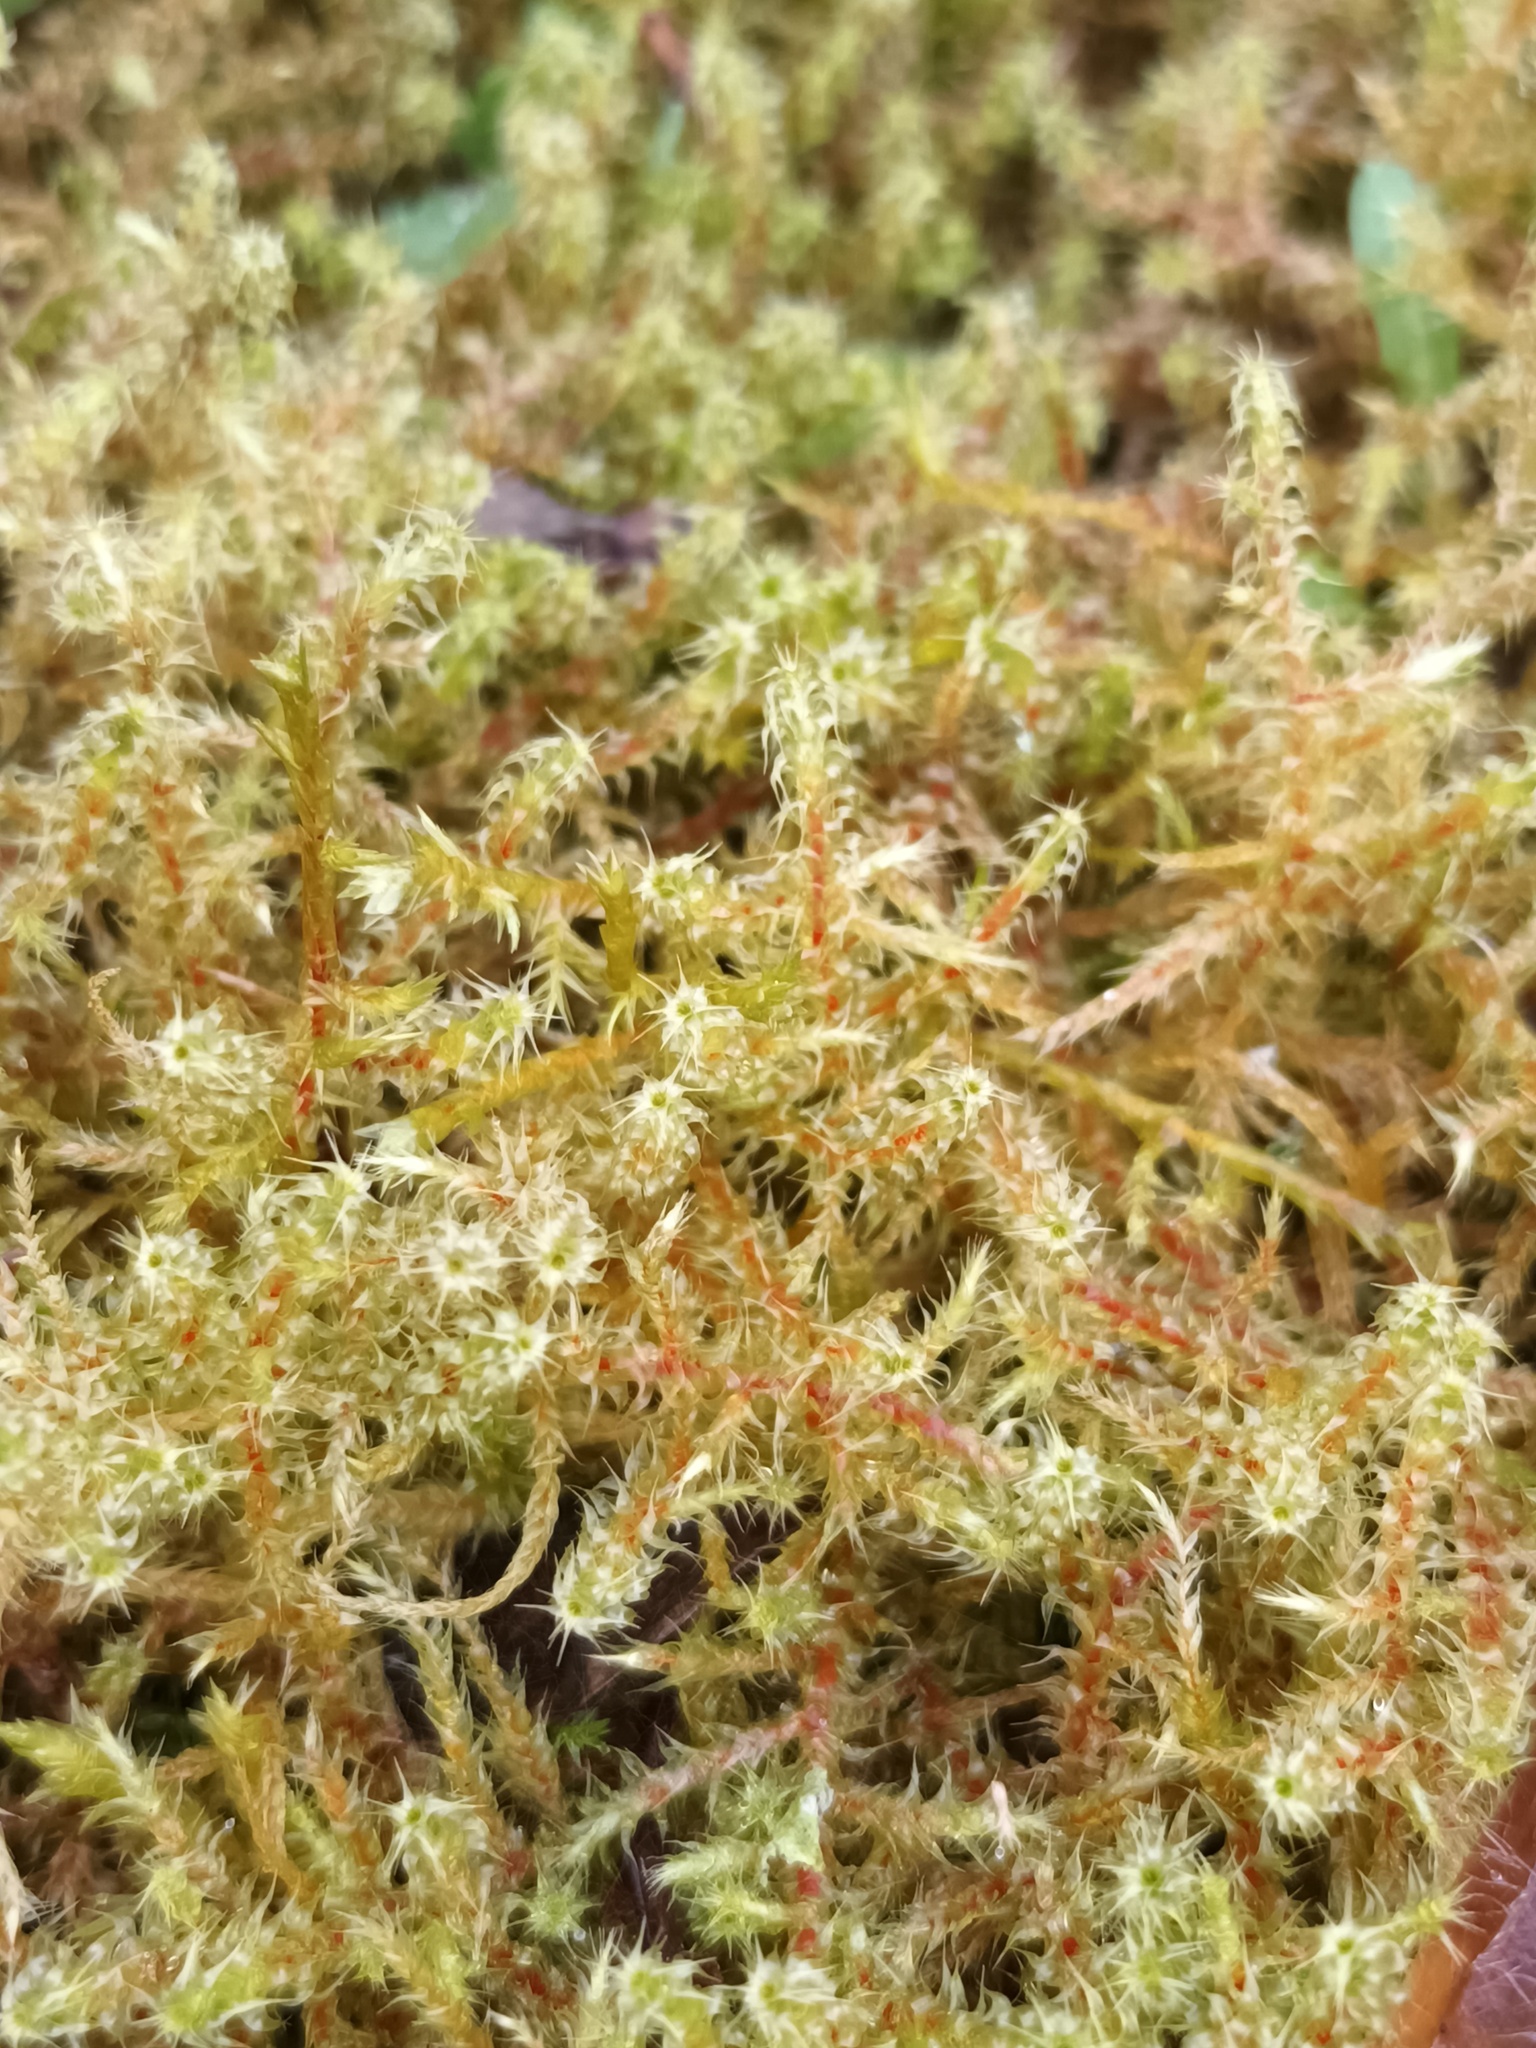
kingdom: Plantae
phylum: Bryophyta
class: Bryopsida
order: Hypnales
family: Hylocomiaceae
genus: Rhytidiadelphus
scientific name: Rhytidiadelphus squarrosus
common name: Springy turf-moss
